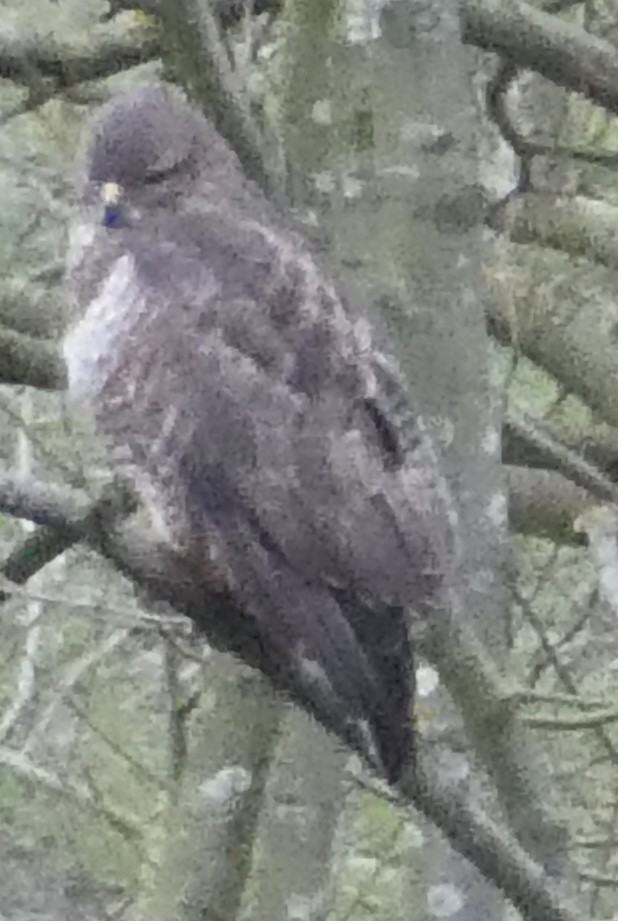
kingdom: Animalia
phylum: Chordata
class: Aves
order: Accipitriformes
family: Accipitridae
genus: Buteo
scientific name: Buteo buteo
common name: Common buzzard
